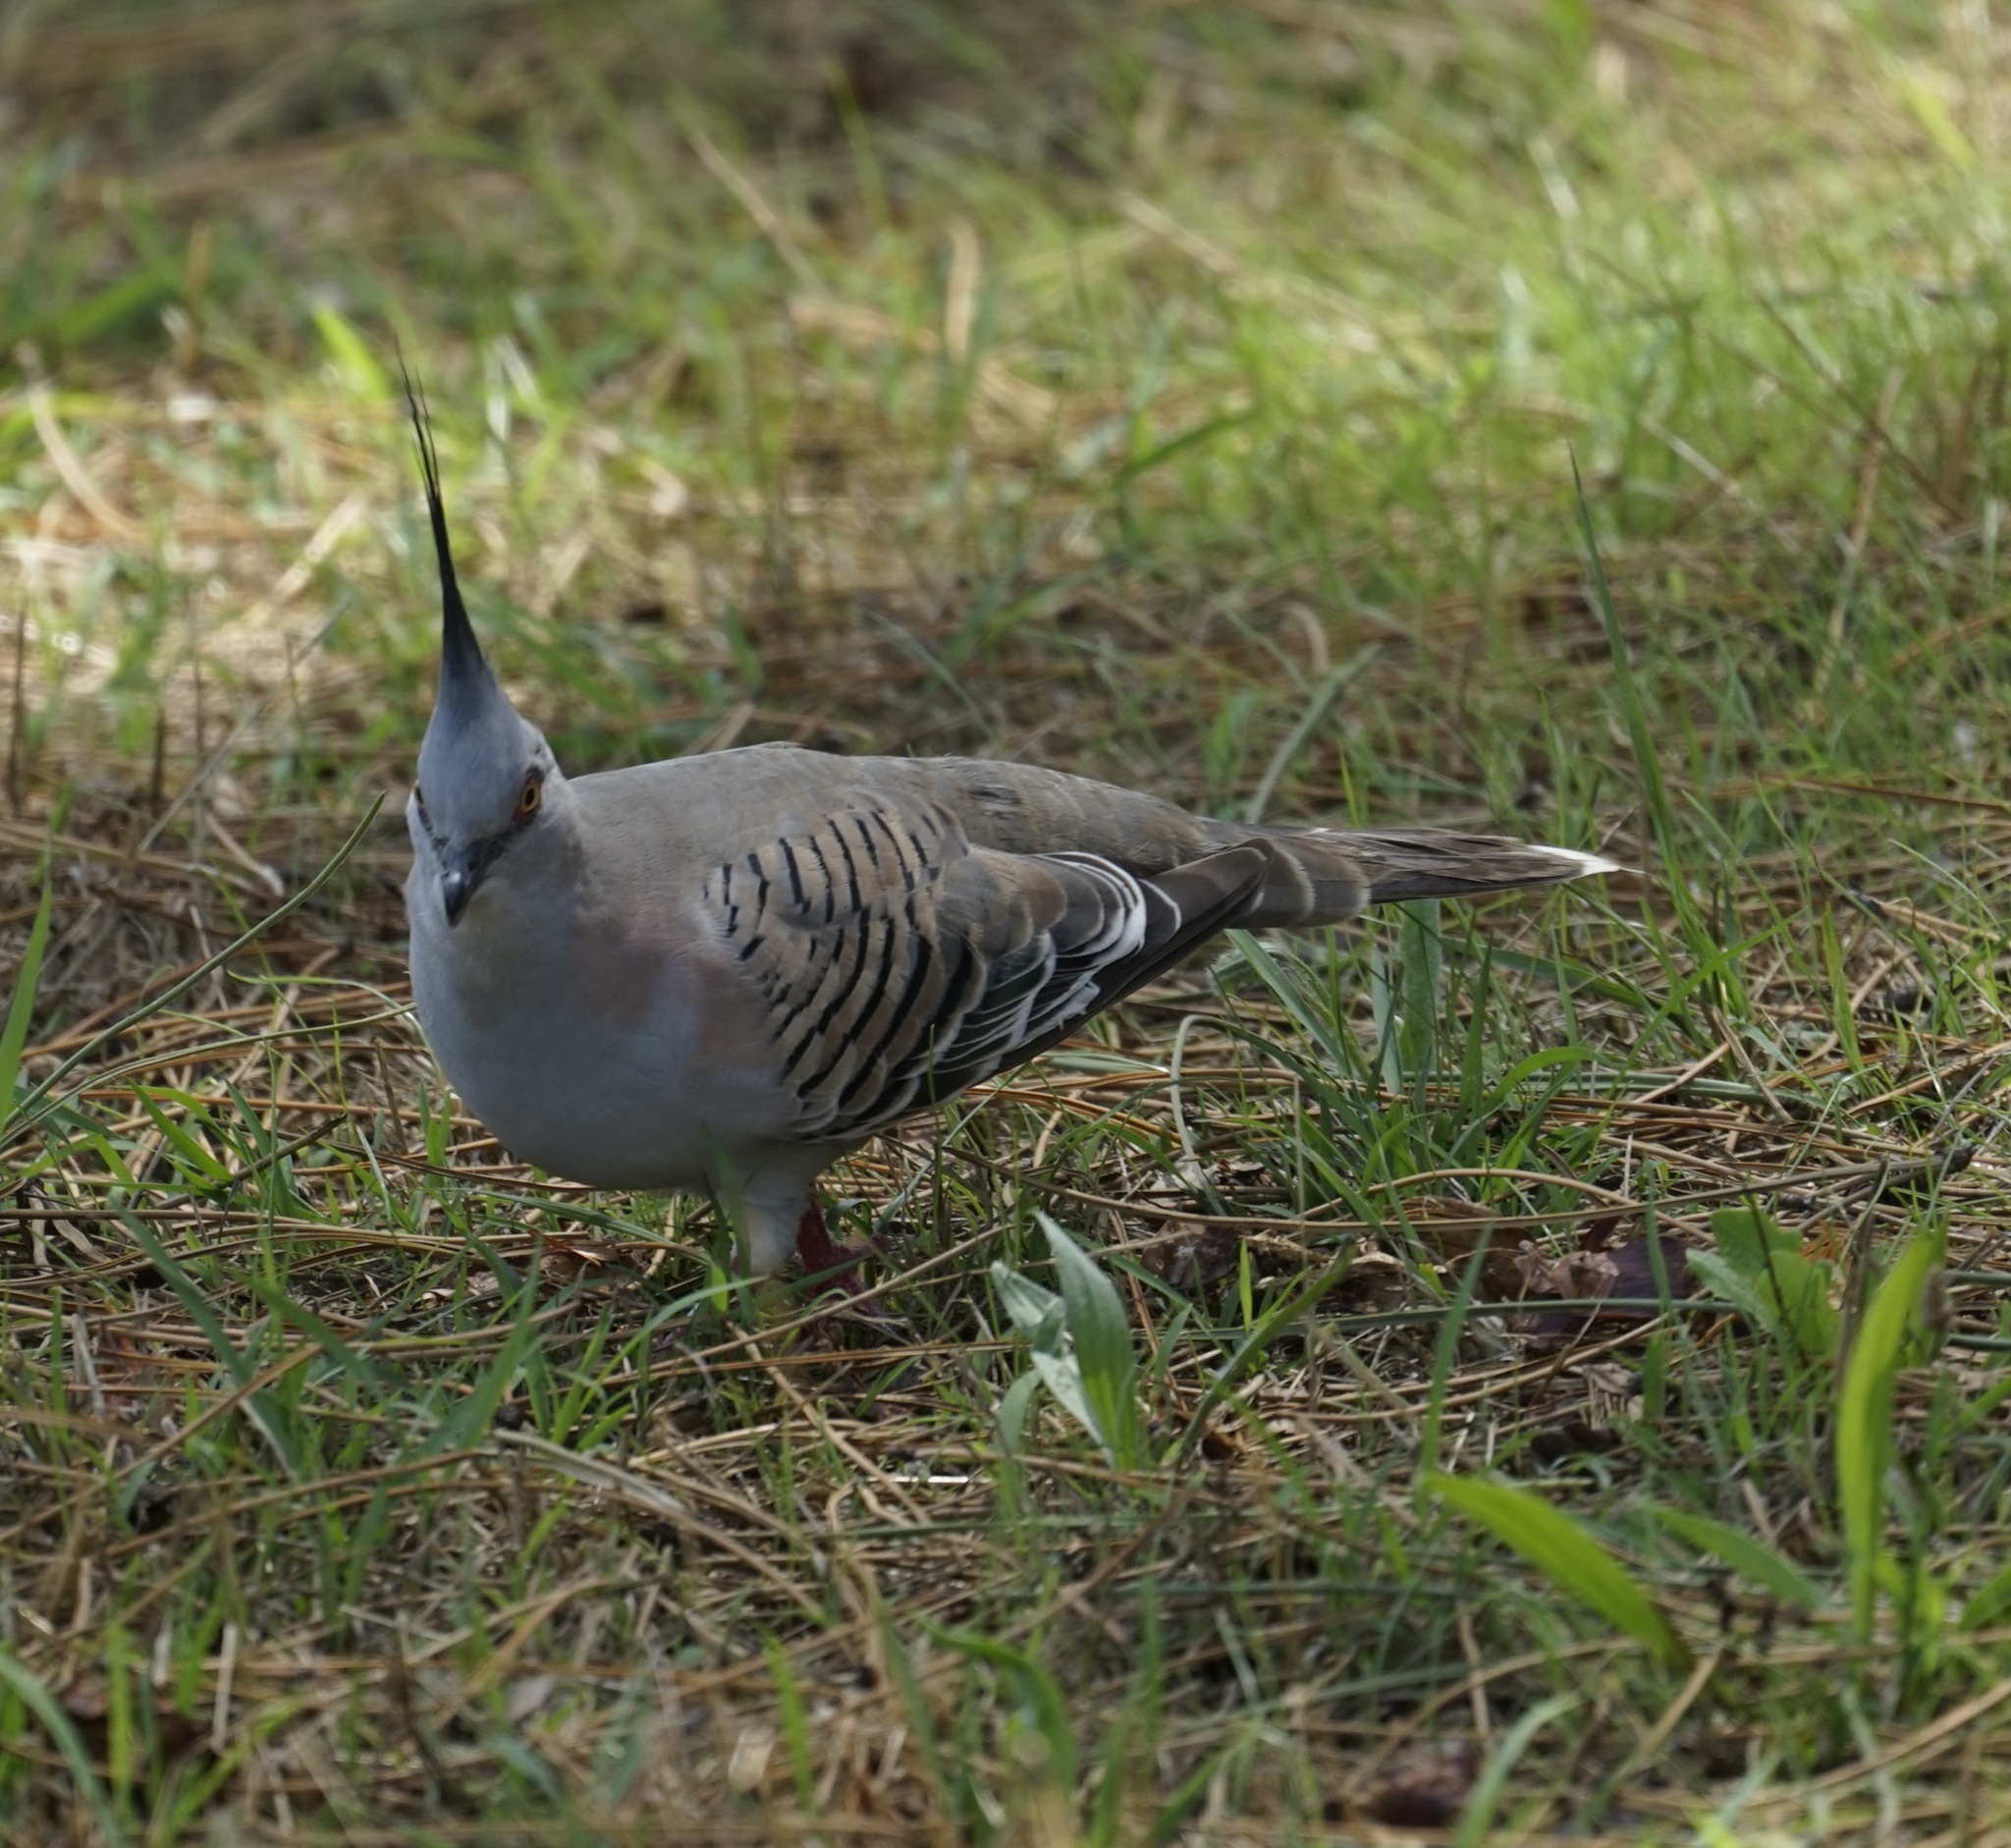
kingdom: Animalia
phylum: Chordata
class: Aves
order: Columbiformes
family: Columbidae
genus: Ocyphaps
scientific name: Ocyphaps lophotes
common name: Crested pigeon
